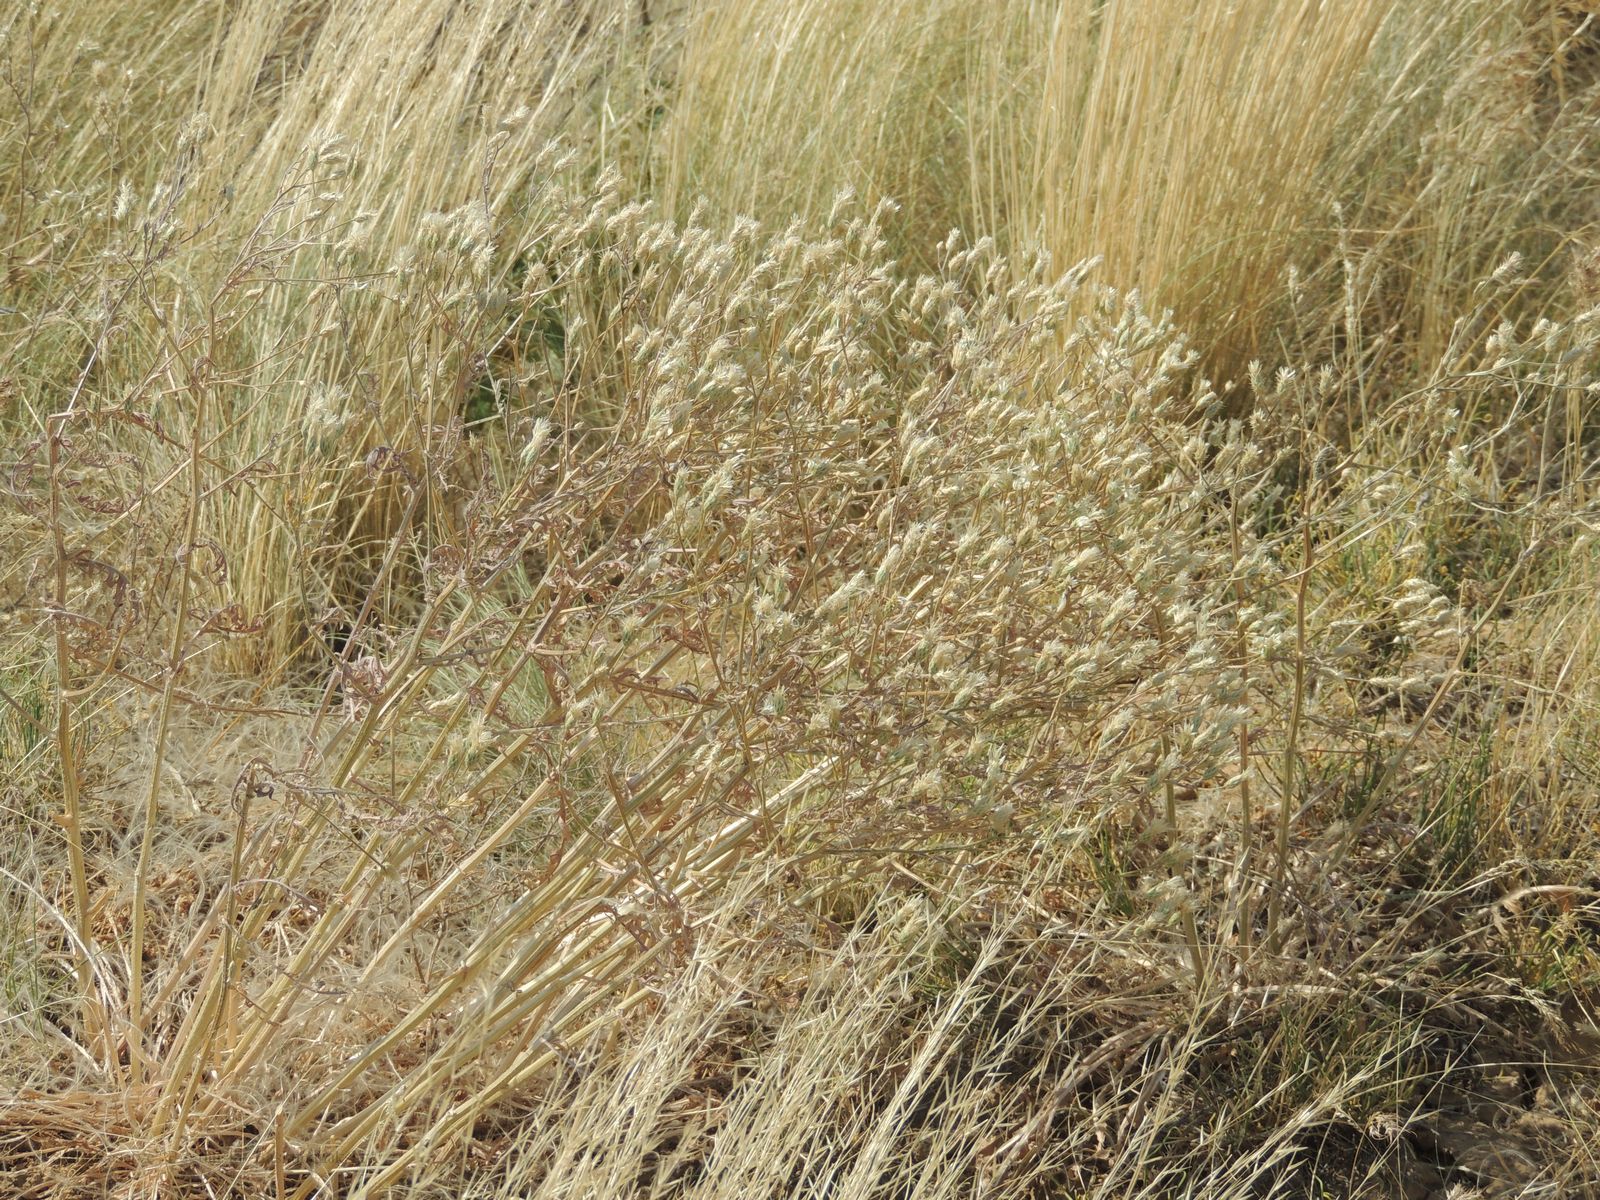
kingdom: Plantae
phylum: Tracheophyta
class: Magnoliopsida
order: Asterales
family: Asteraceae
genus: Klasea
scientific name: Klasea erucifolia
